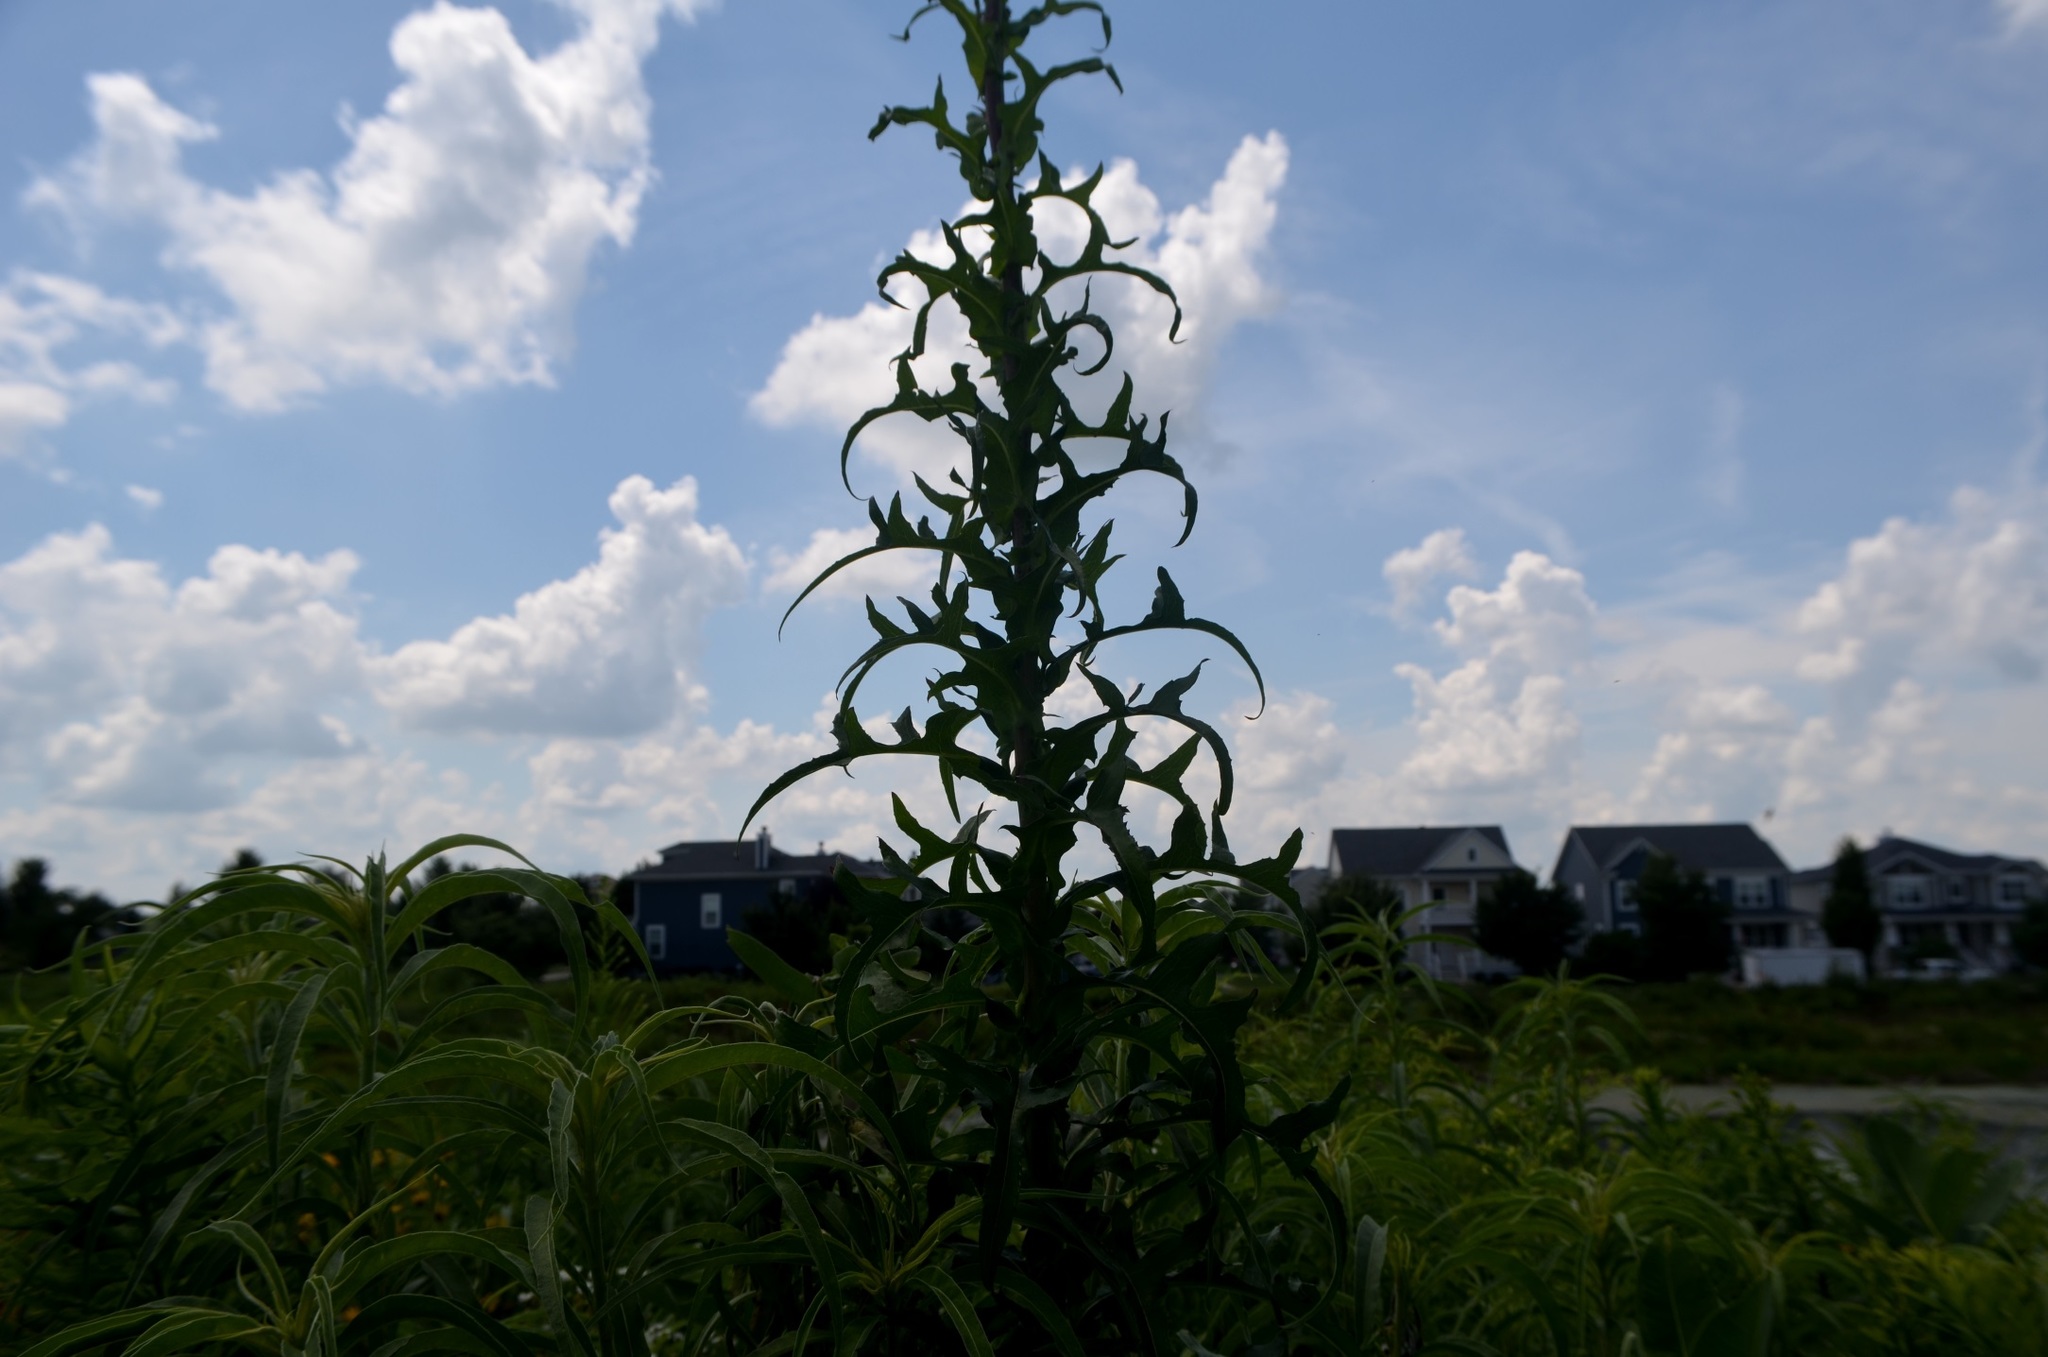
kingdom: Plantae
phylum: Tracheophyta
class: Magnoliopsida
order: Asterales
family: Asteraceae
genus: Lactuca
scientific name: Lactuca canadensis
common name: Canada lettuce
